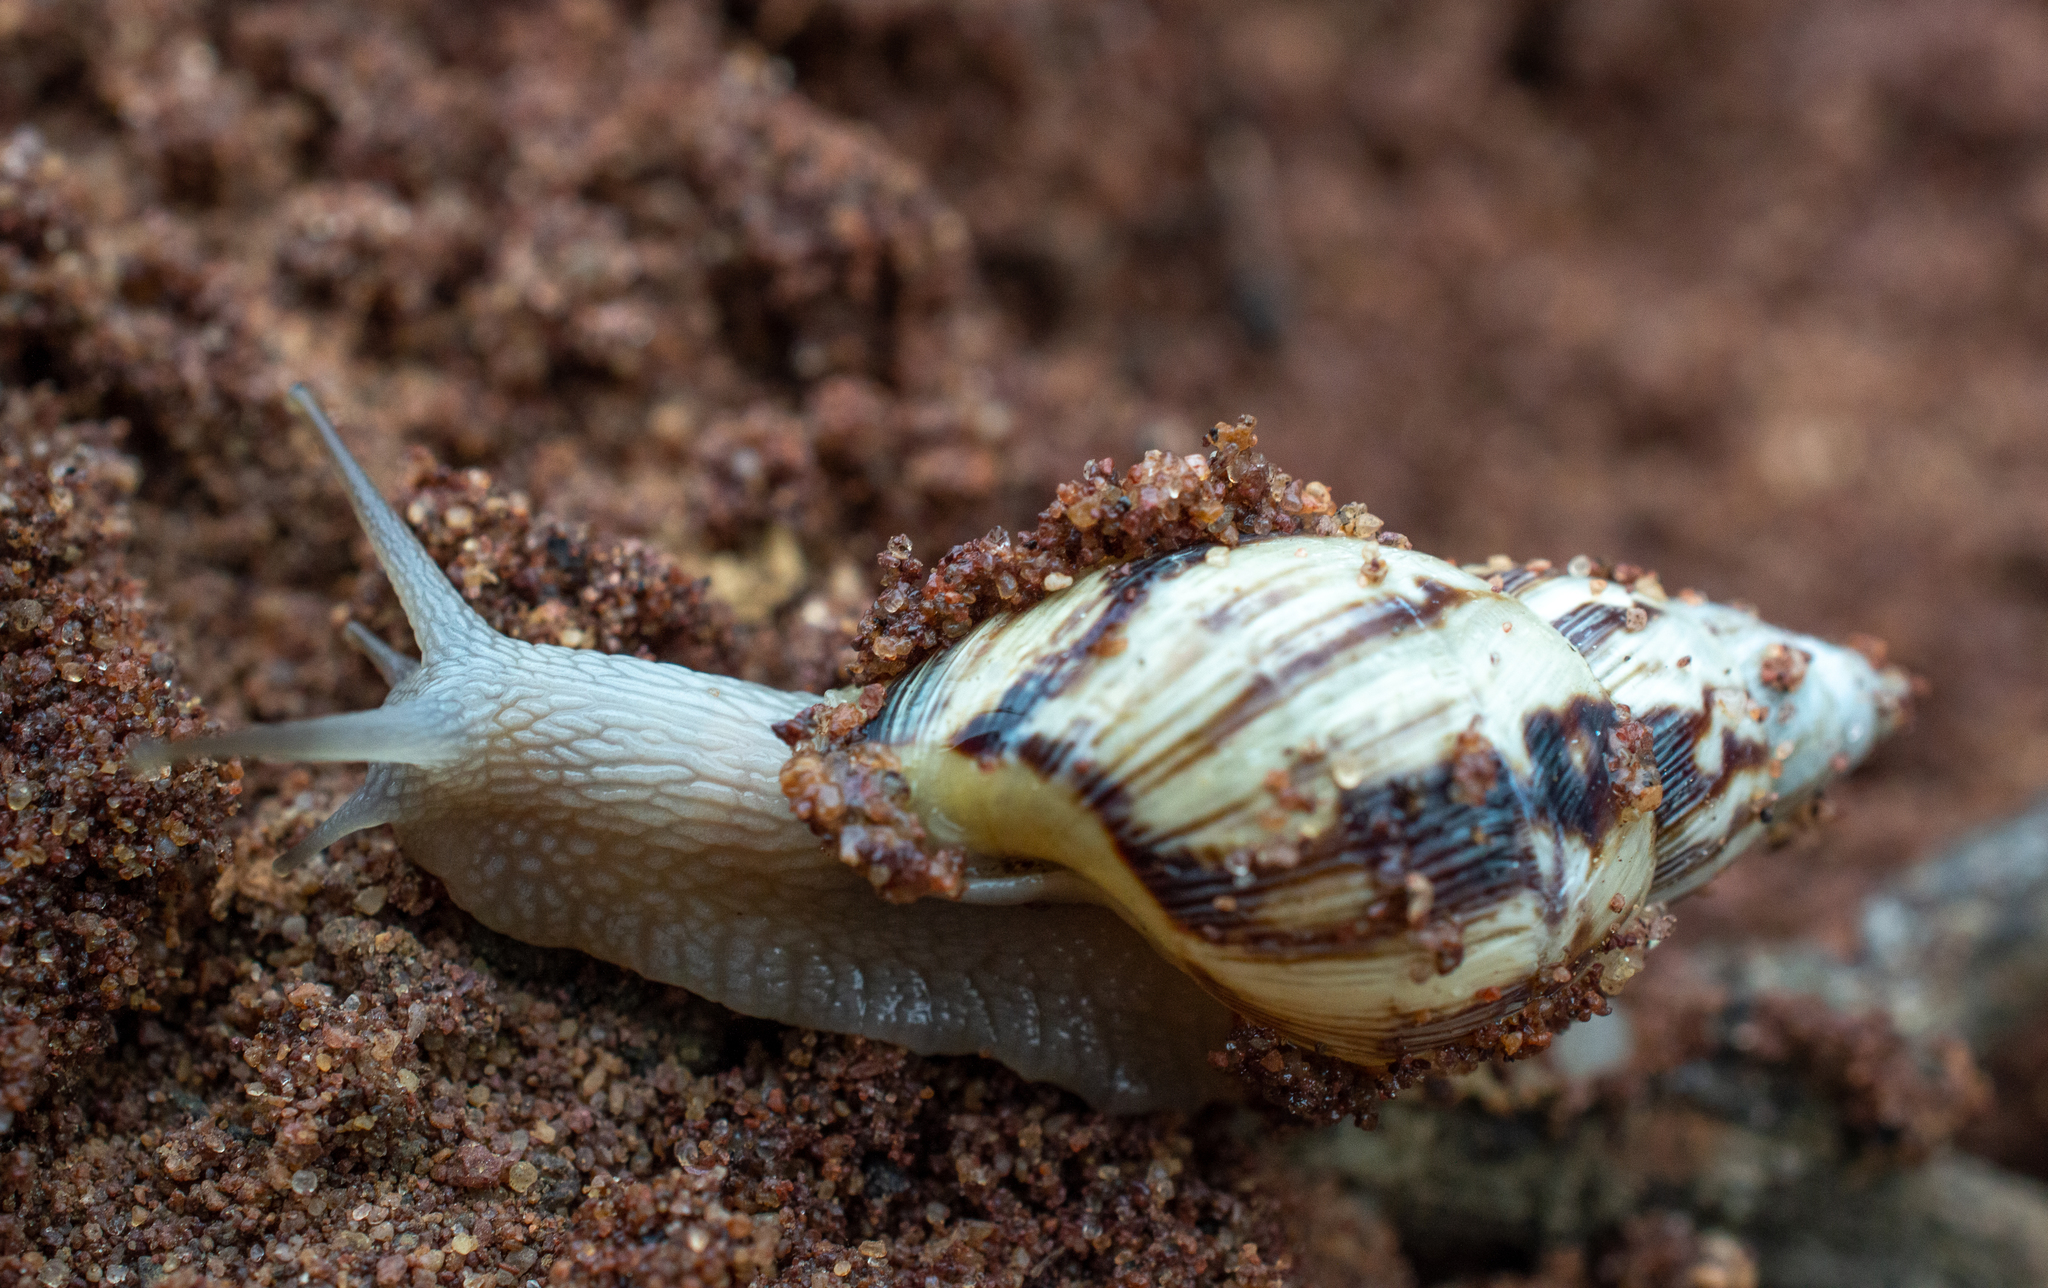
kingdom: Animalia
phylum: Mollusca
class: Gastropoda
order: Stylommatophora
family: Bulimulidae
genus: Drymaeus
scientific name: Drymaeus papyraceus
